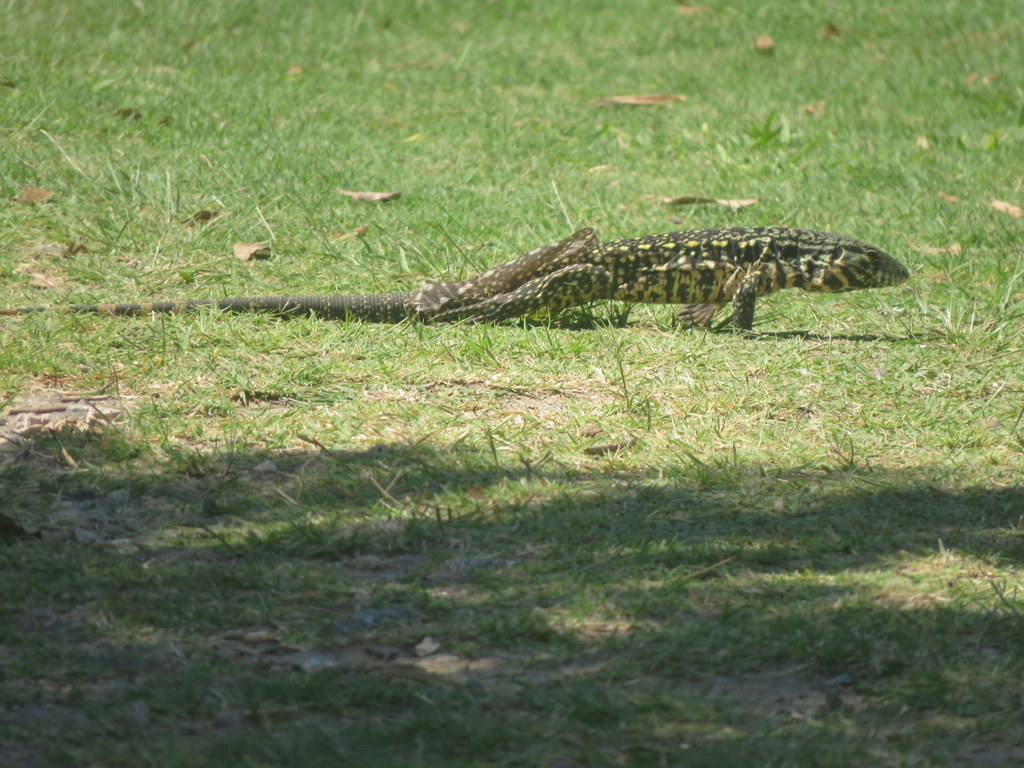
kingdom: Animalia
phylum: Chordata
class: Squamata
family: Teiidae
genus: Salvator
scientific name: Salvator merianae
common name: Argentine black and white tegu
